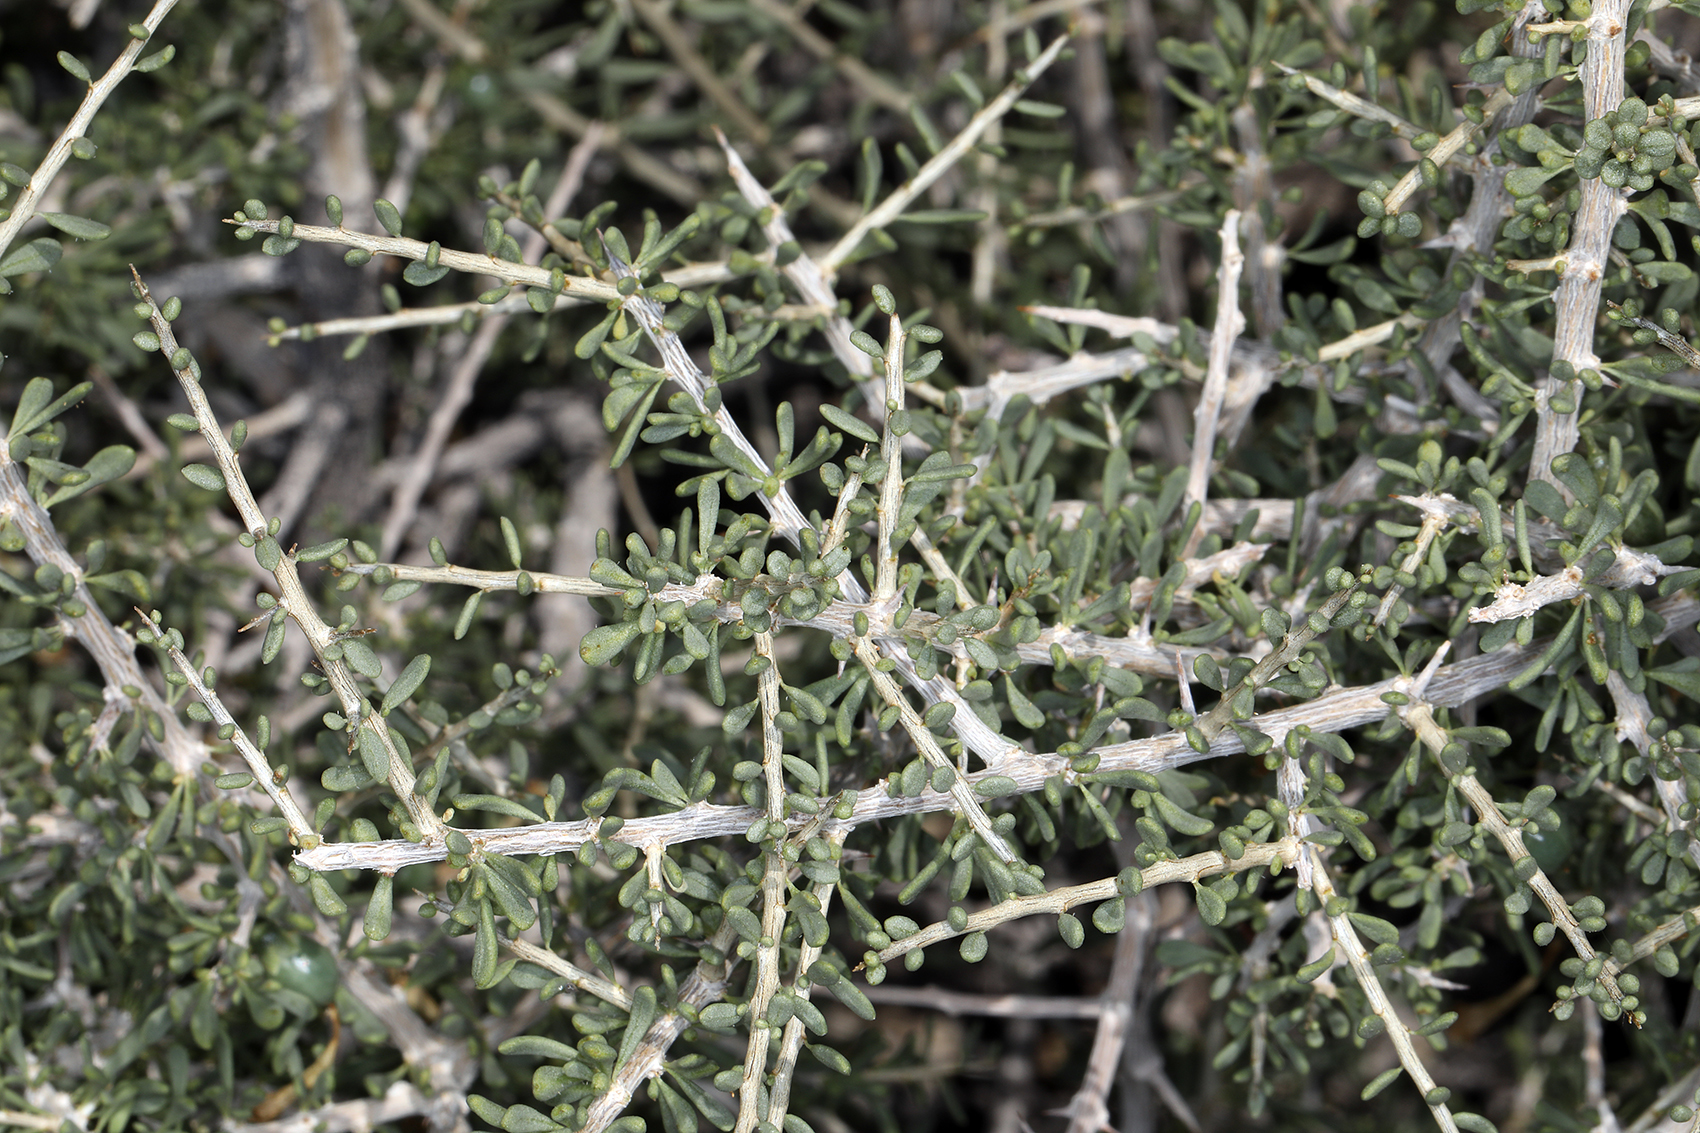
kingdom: Plantae
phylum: Tracheophyta
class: Magnoliopsida
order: Solanales
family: Solanaceae
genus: Lycium
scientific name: Lycium andersonii
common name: Water-jacket
